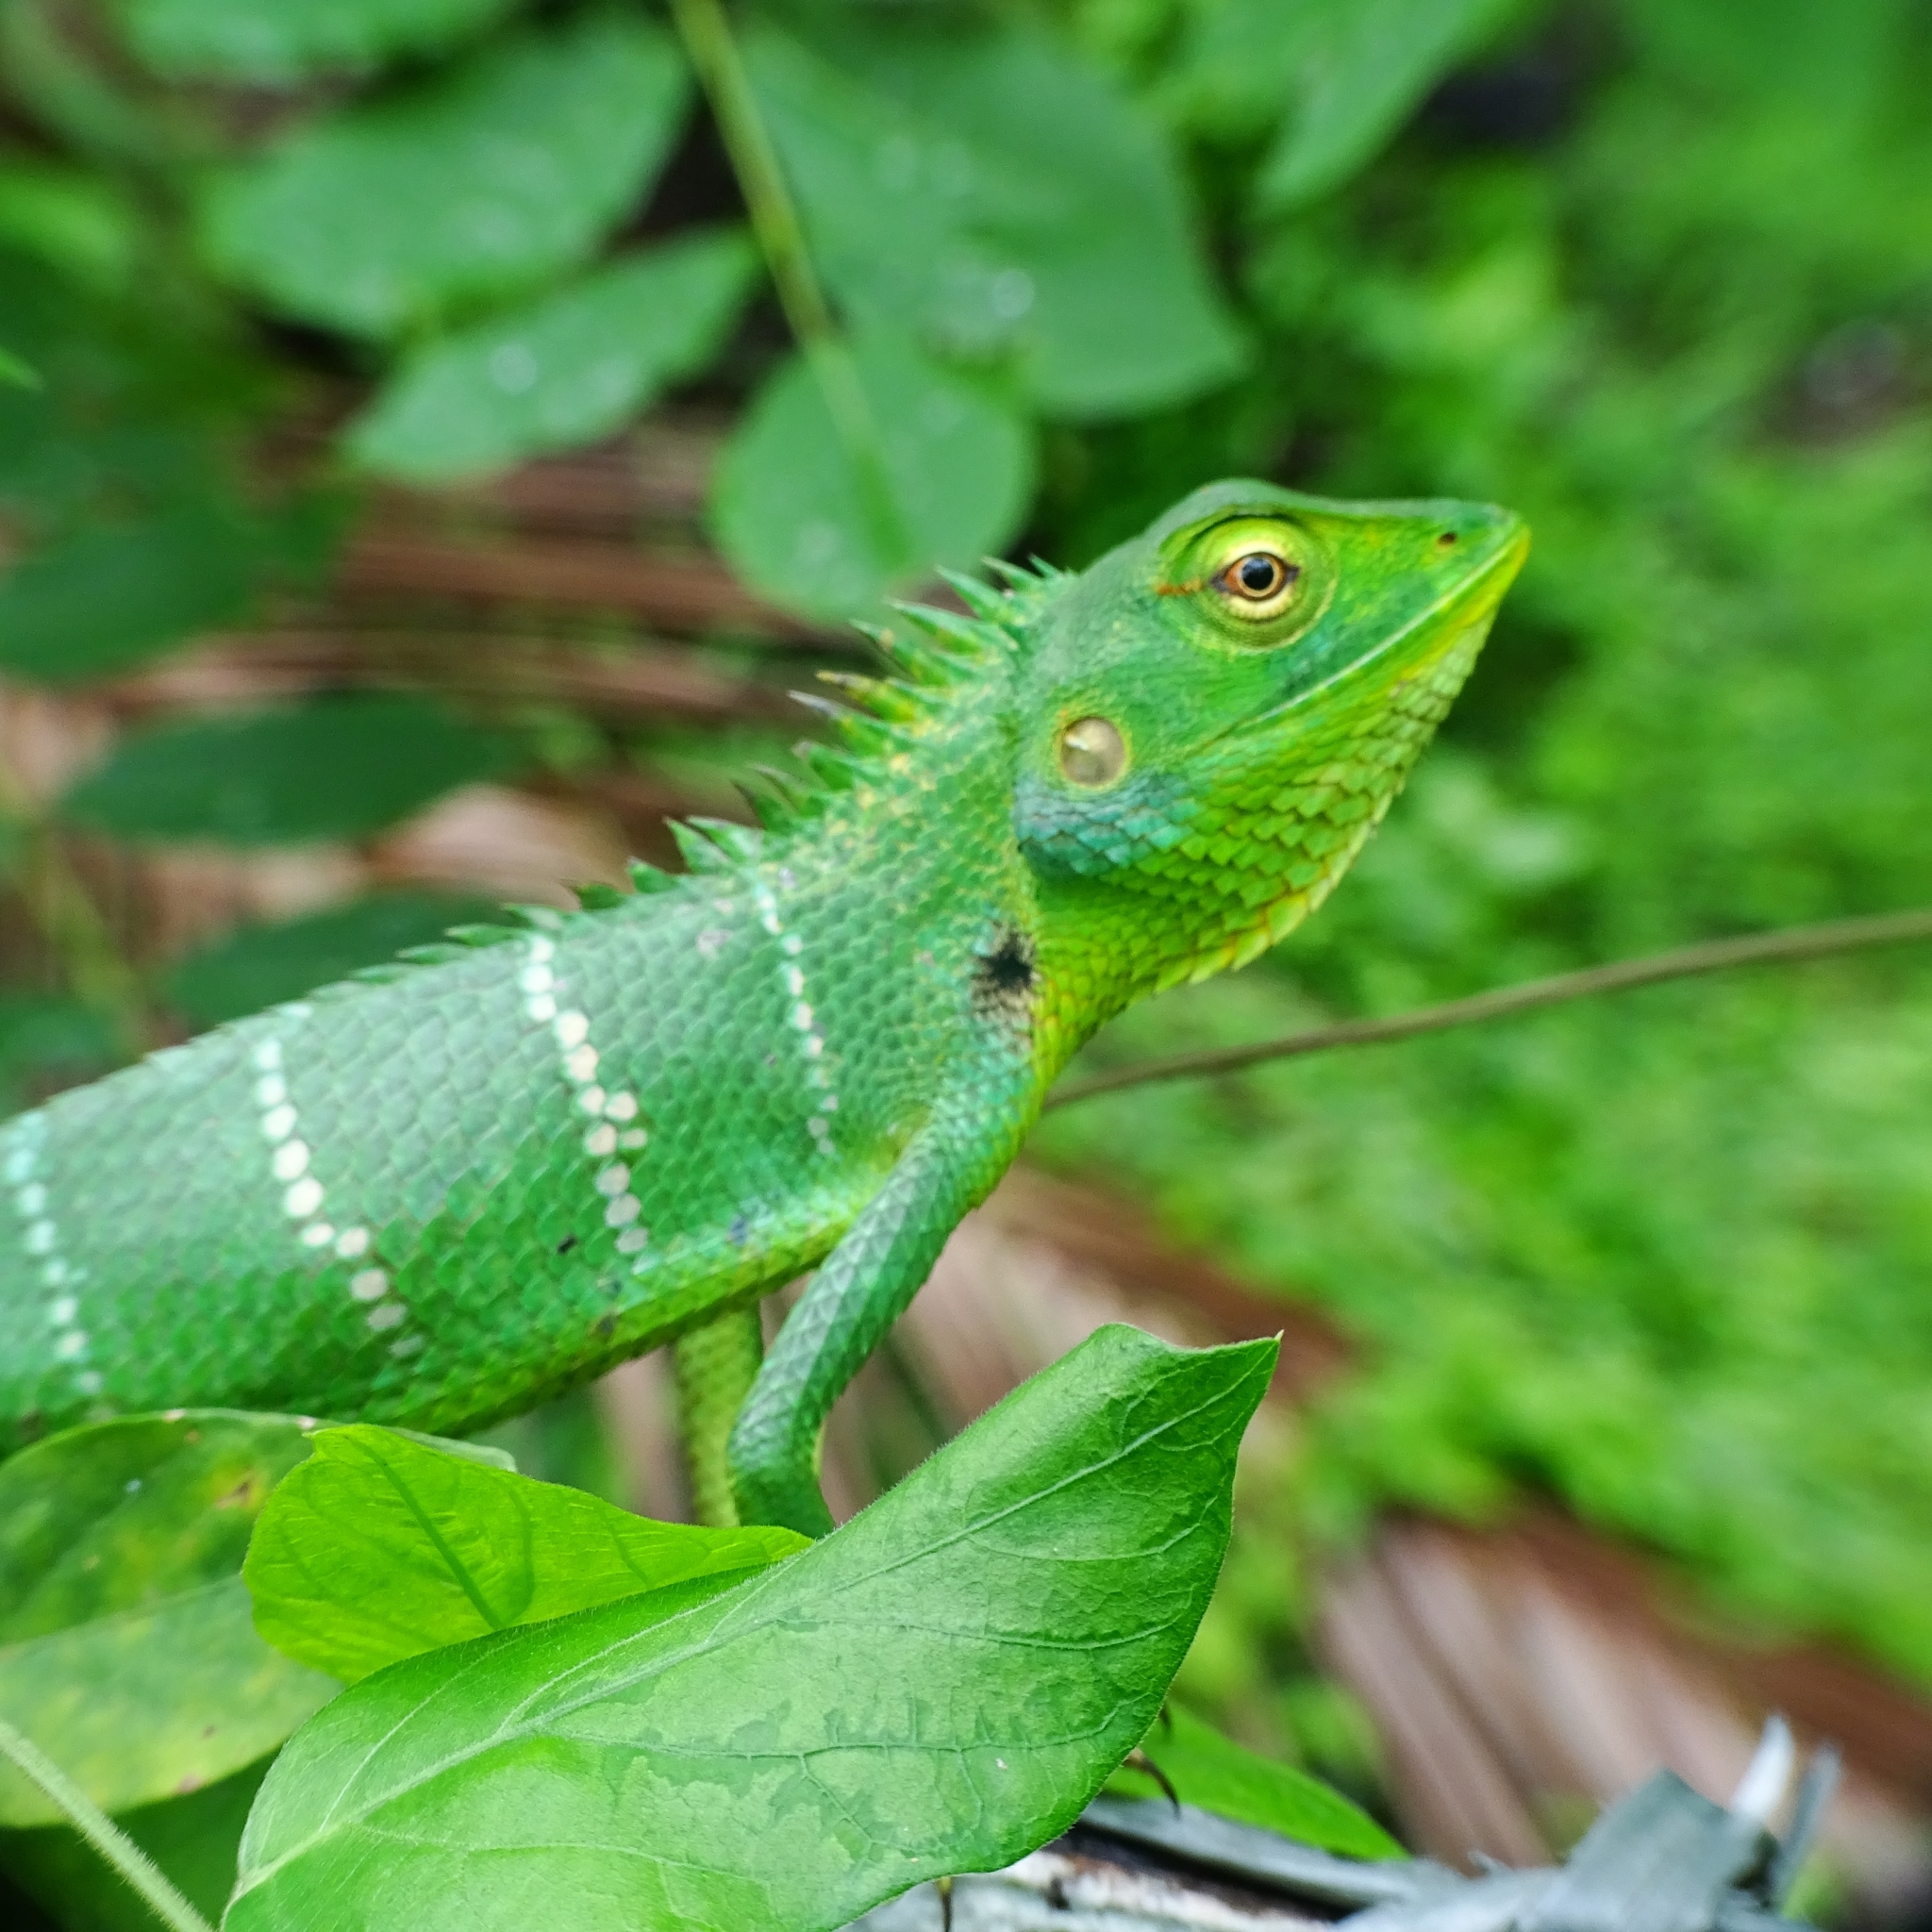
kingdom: Animalia
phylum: Chordata
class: Squamata
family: Agamidae
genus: Calotes
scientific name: Calotes calotes
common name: Common green forest lizard
